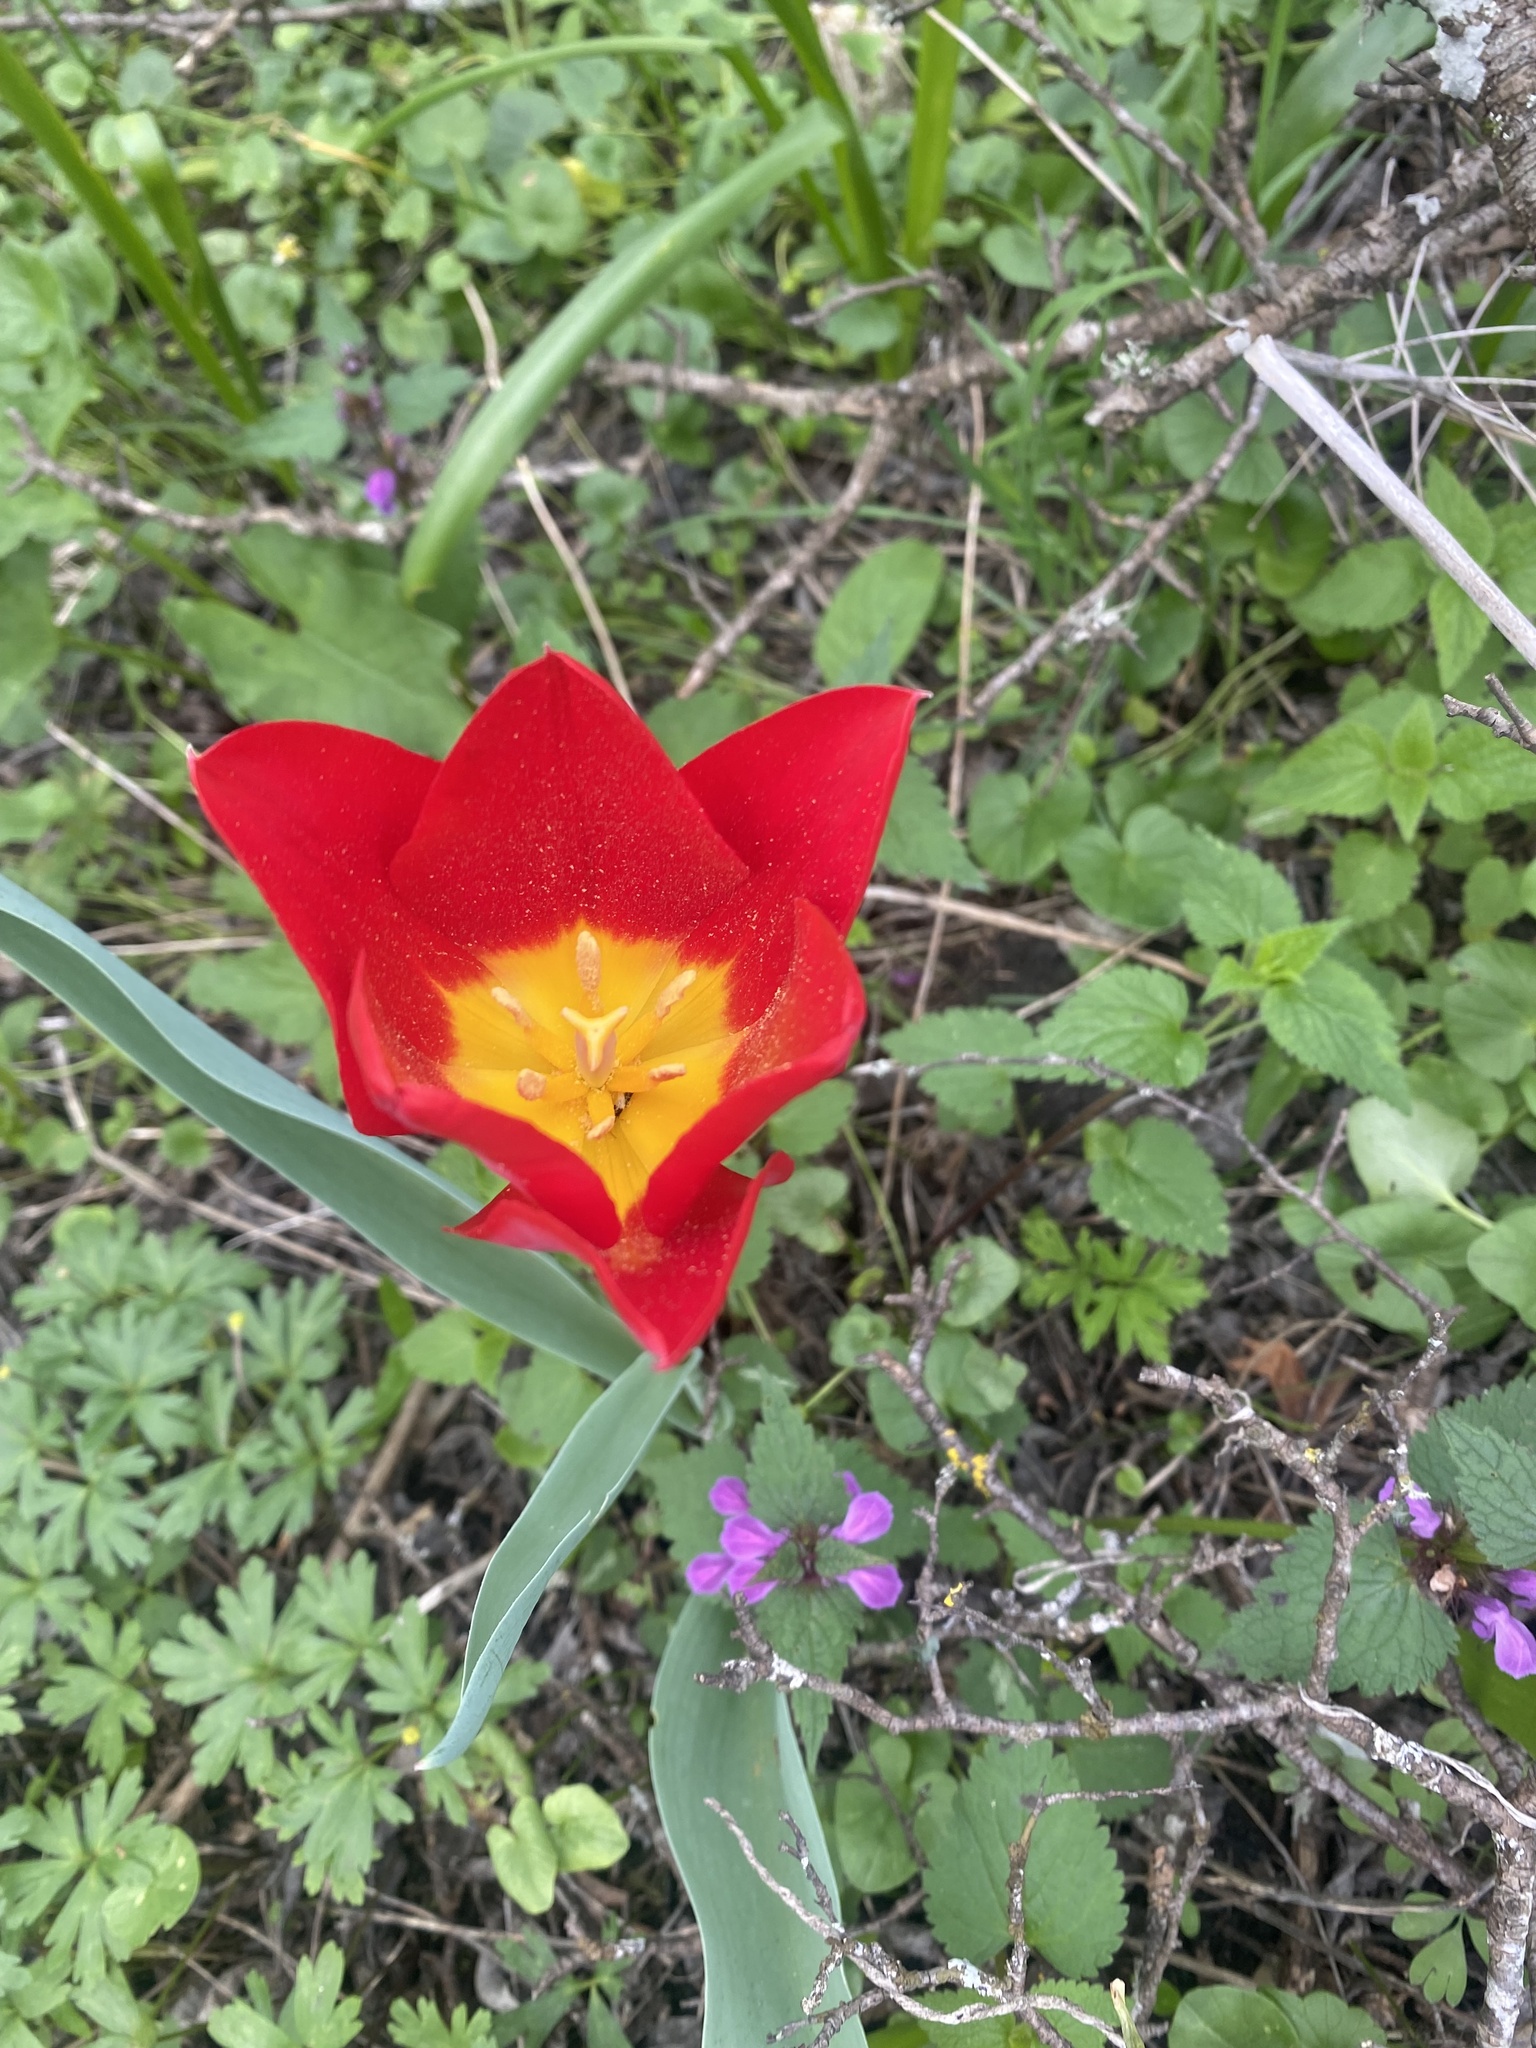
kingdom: Plantae
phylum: Tracheophyta
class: Liliopsida
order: Liliales
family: Liliaceae
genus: Tulipa
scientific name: Tulipa suaveolens
